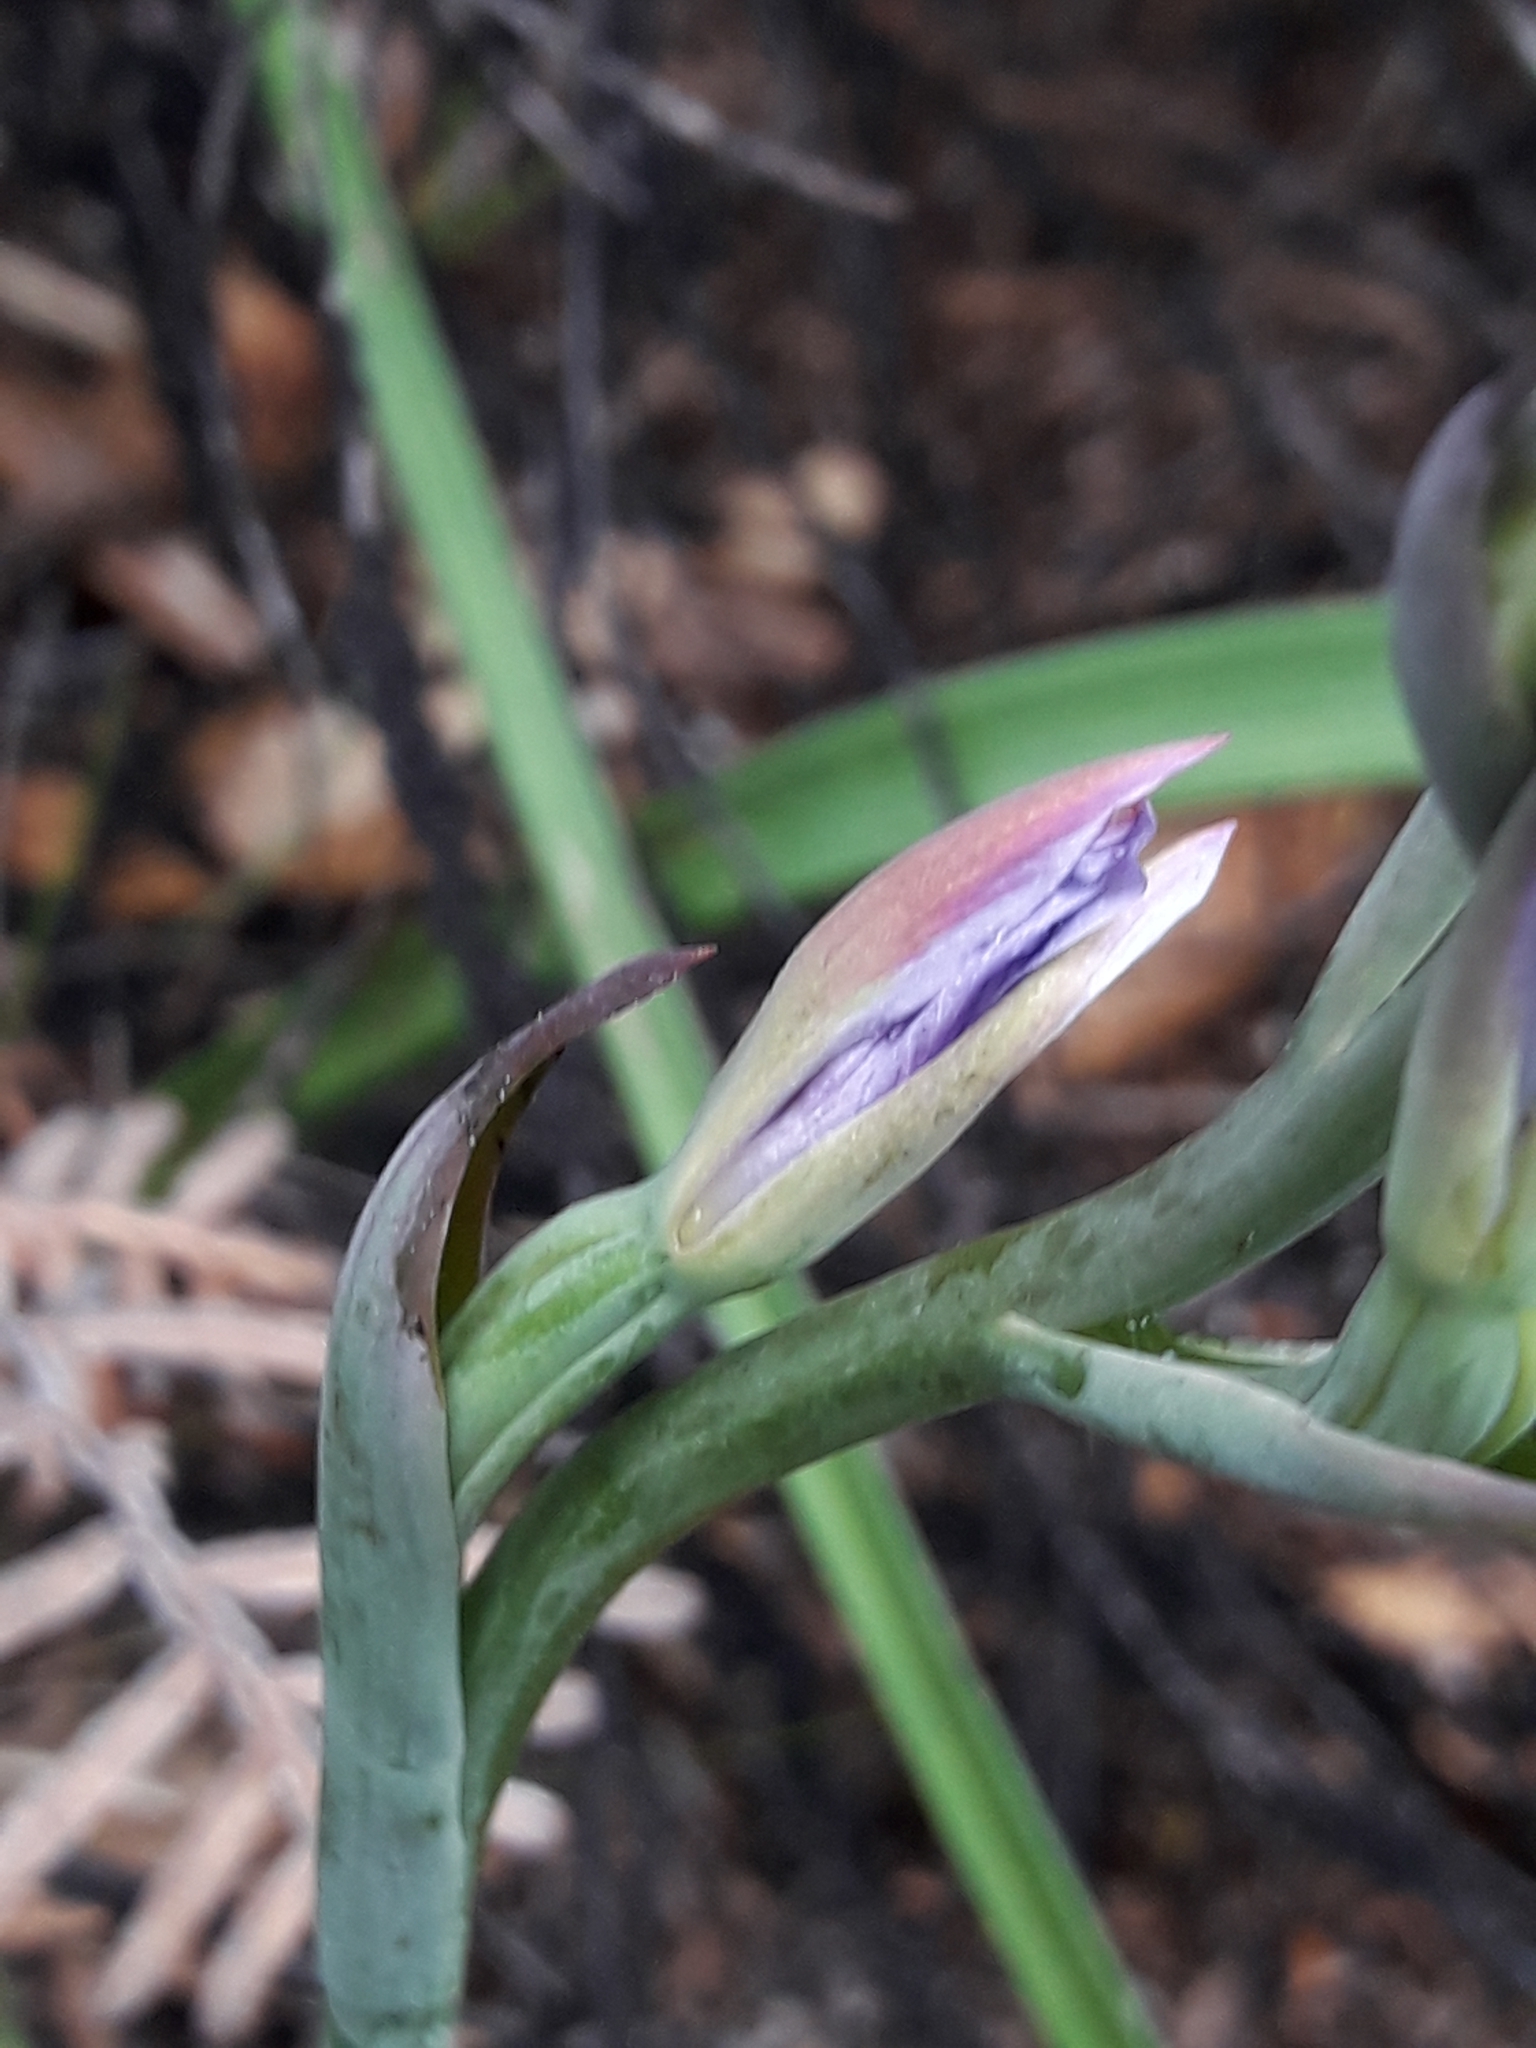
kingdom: Plantae
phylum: Tracheophyta
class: Liliopsida
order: Asparagales
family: Orchidaceae
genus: Thelymitra
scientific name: Thelymitra nervosa
